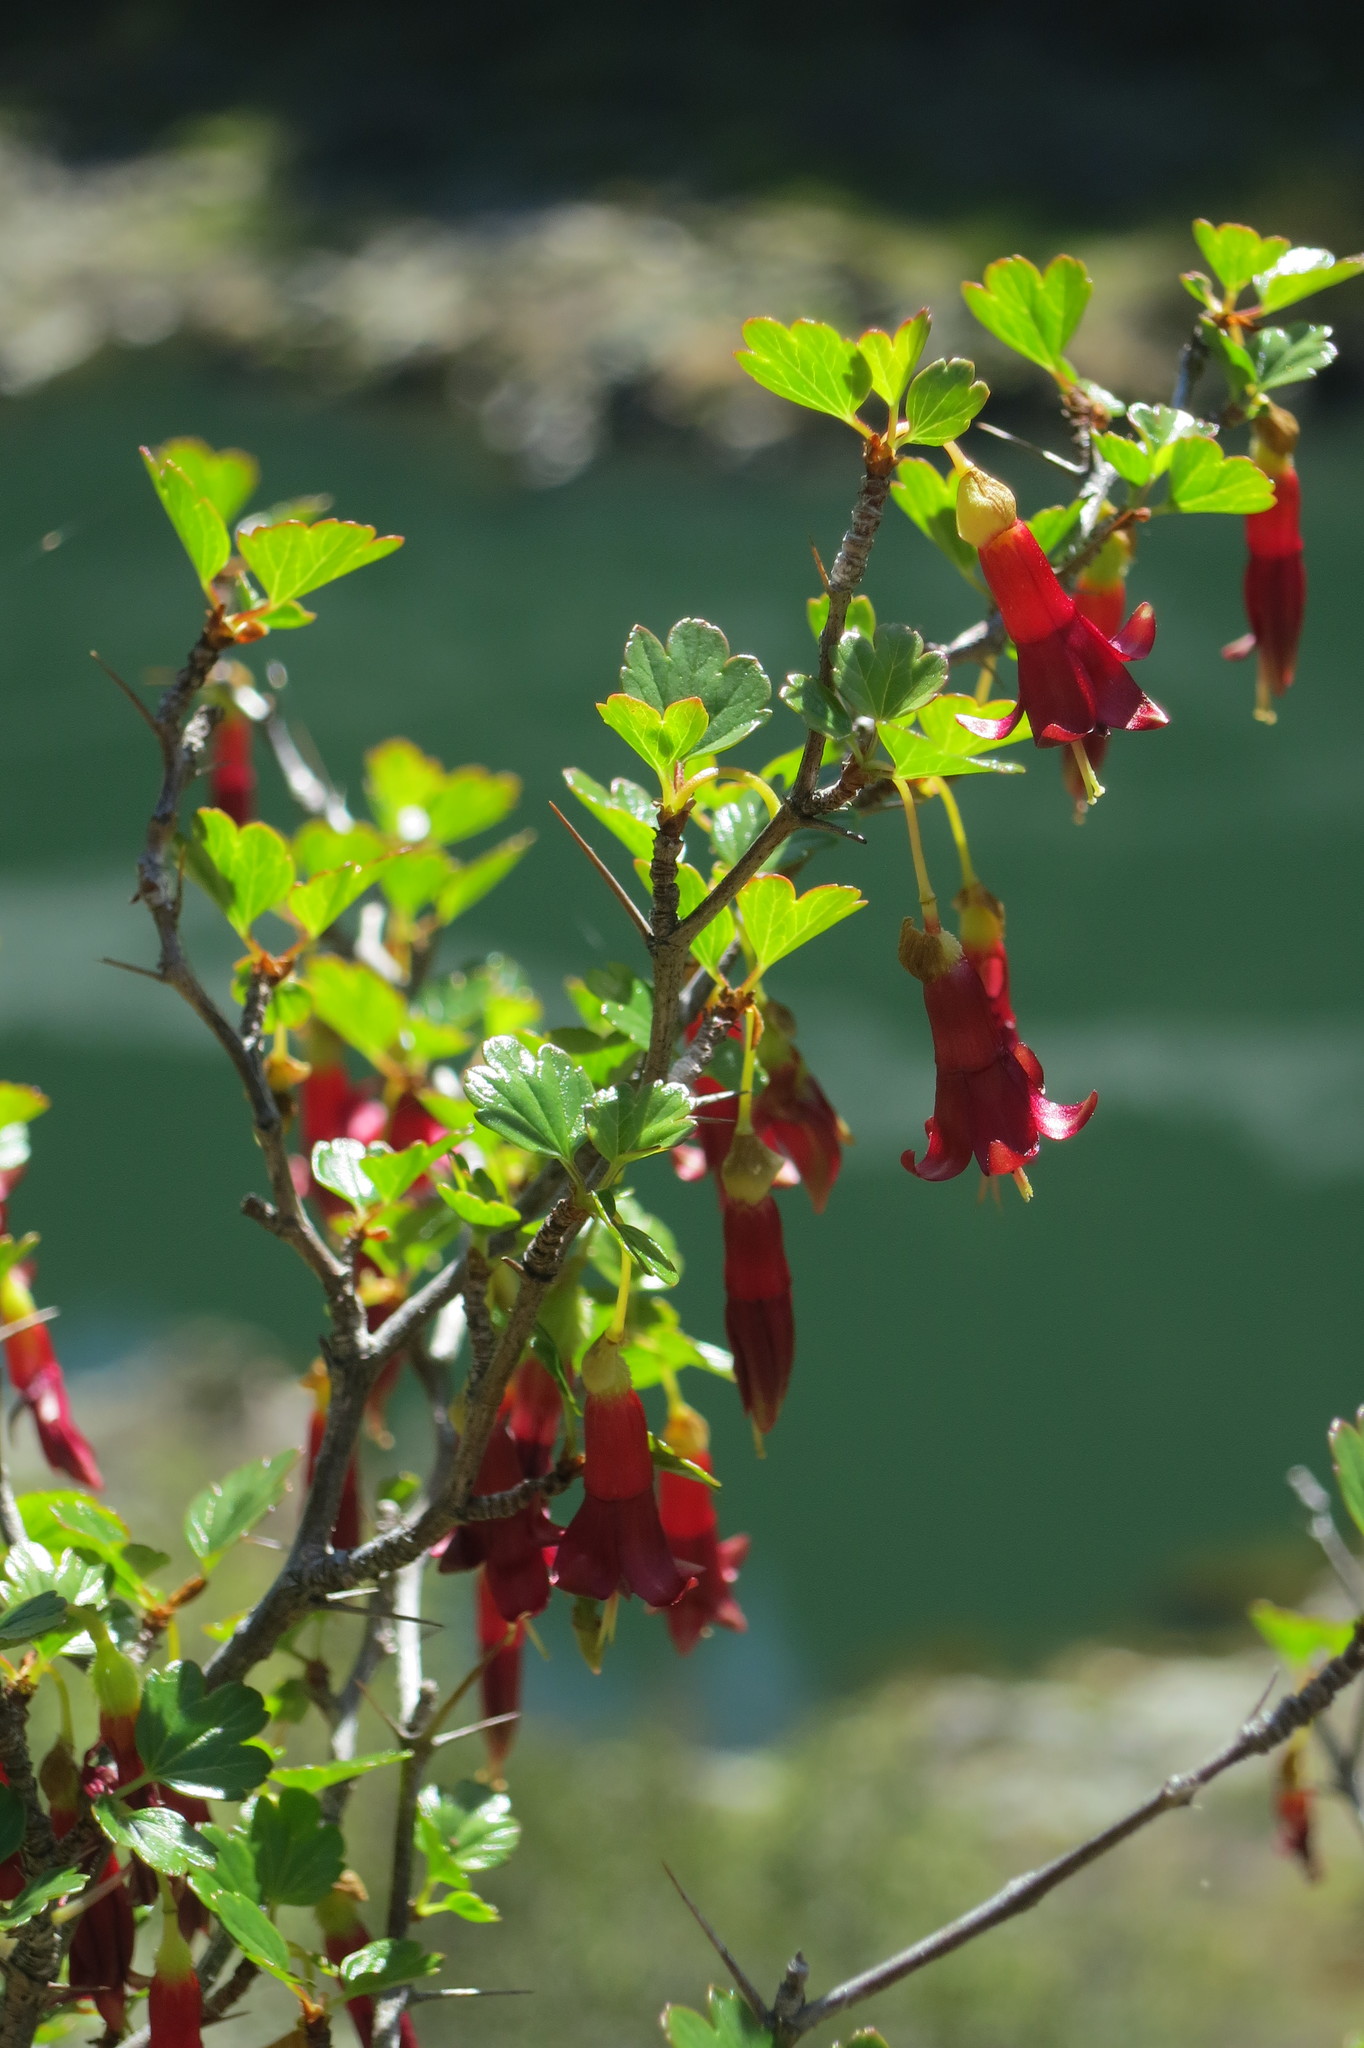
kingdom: Plantae
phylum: Tracheophyta
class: Magnoliopsida
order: Saxifragales
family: Grossulariaceae
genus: Ribes
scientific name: Ribes roezlii
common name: Sierra gooseberry
